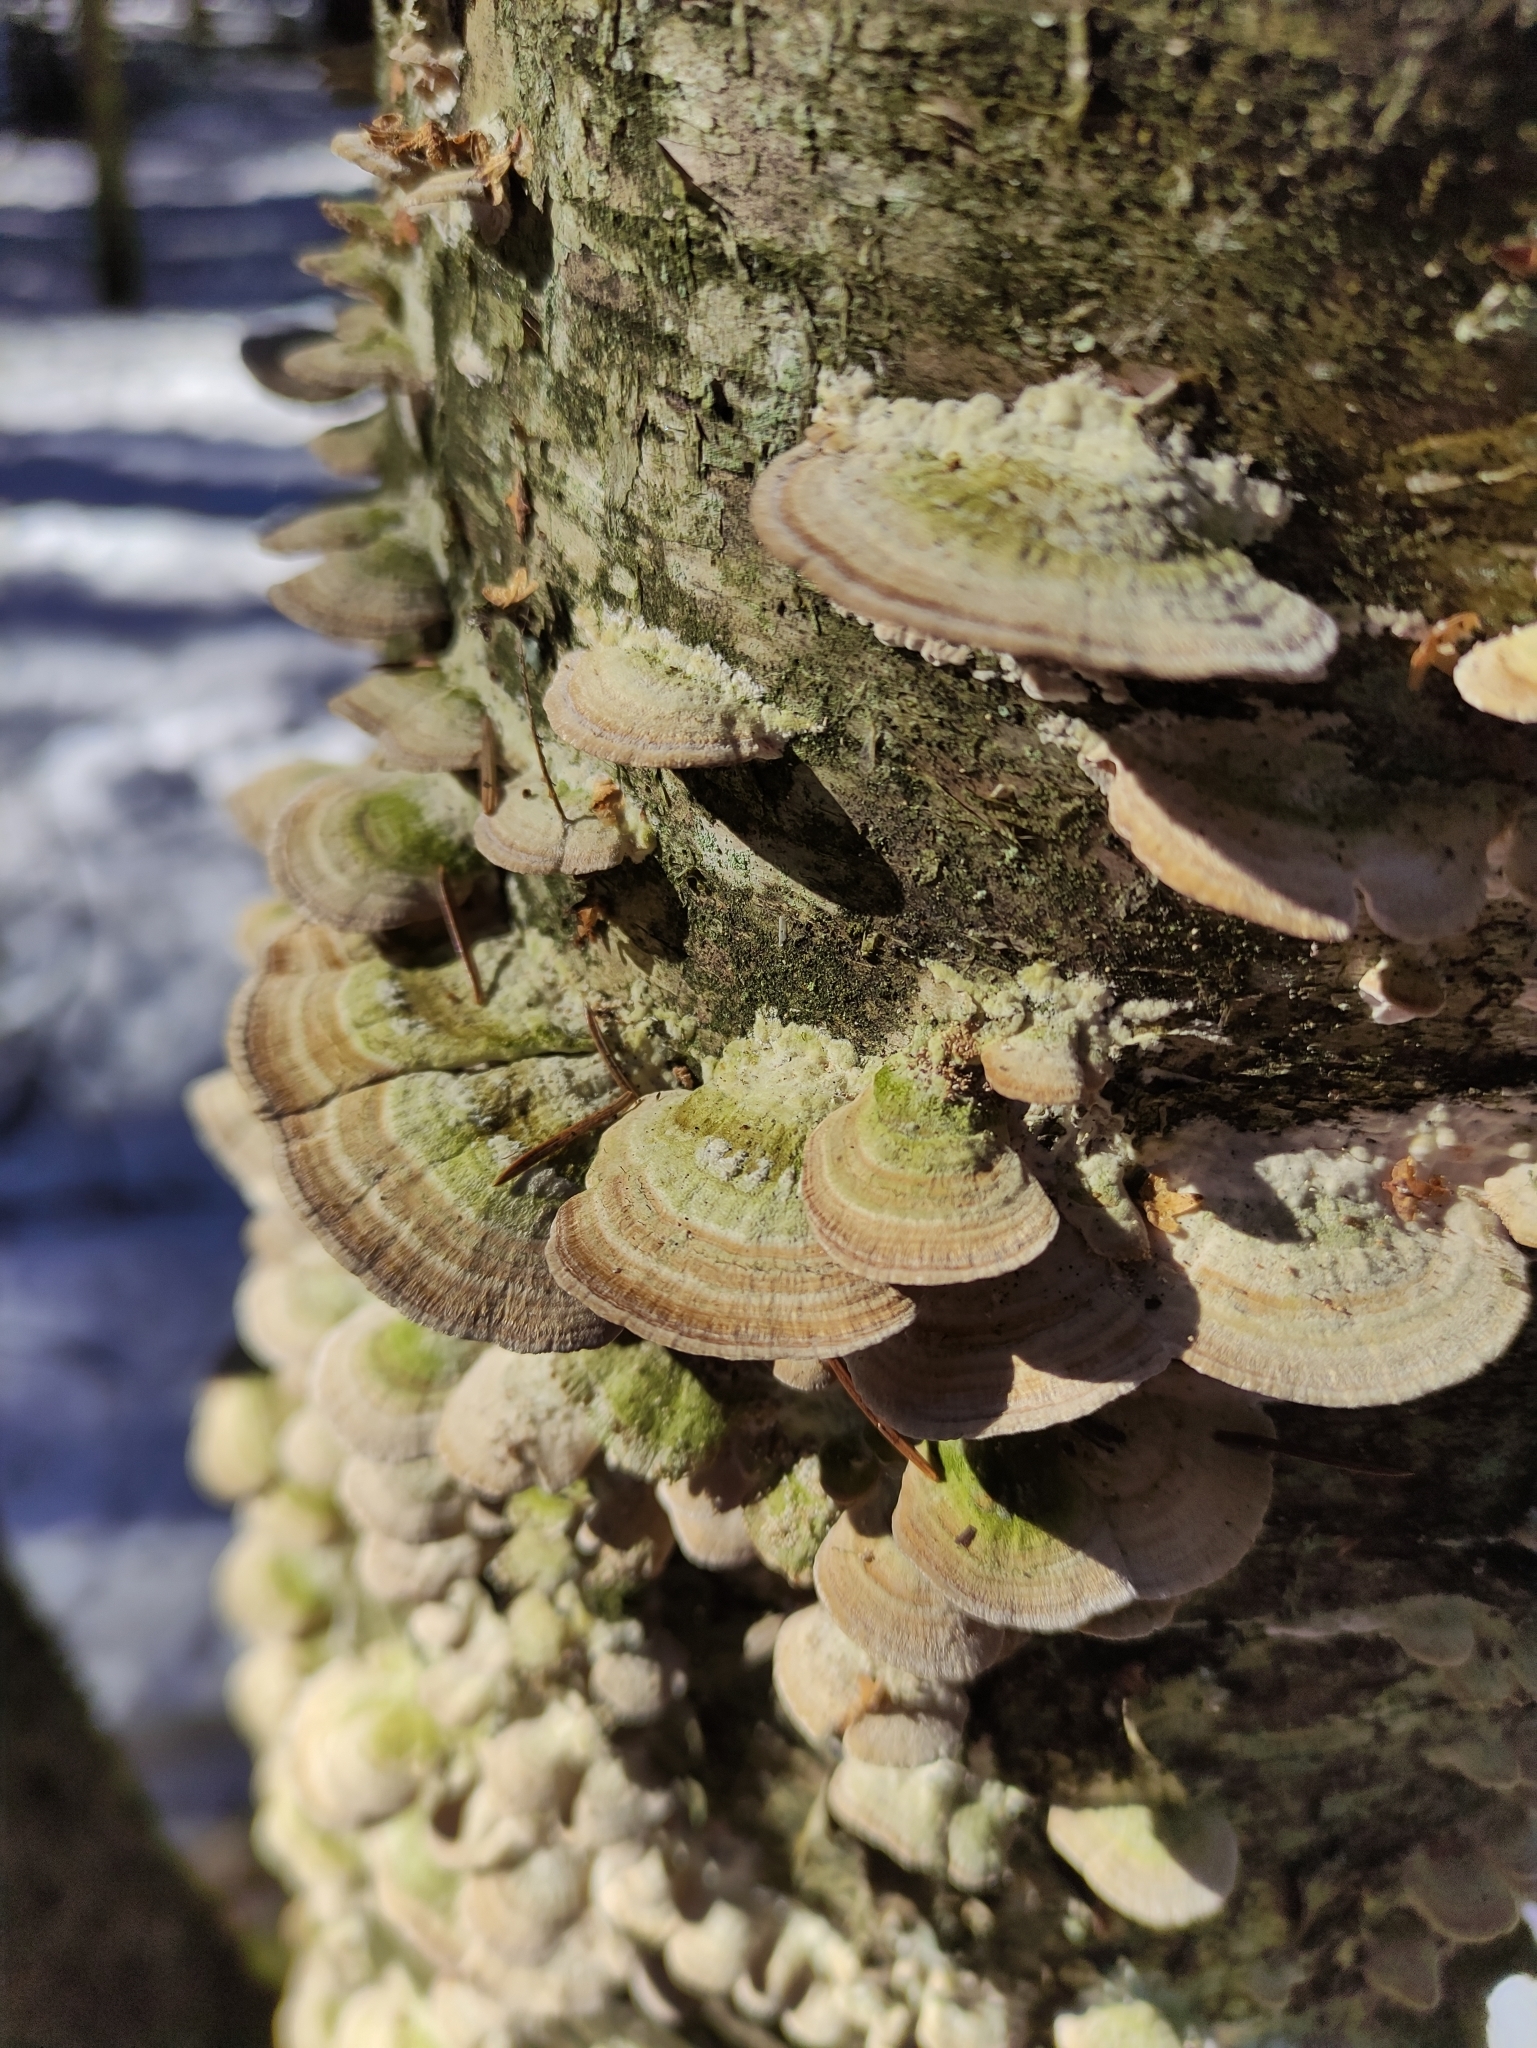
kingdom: Fungi
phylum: Basidiomycota
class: Agaricomycetes
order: Hymenochaetales
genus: Trichaptum
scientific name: Trichaptum biforme
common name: Violet-toothed polypore
